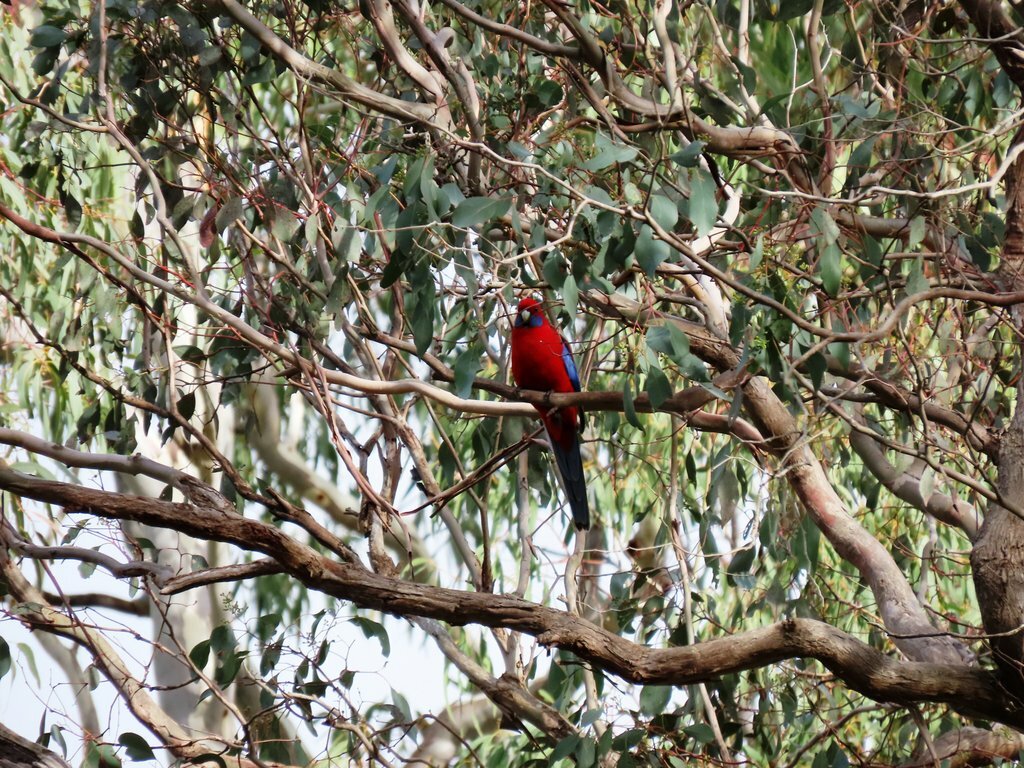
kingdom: Animalia
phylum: Chordata
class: Aves
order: Psittaciformes
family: Psittacidae
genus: Platycercus
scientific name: Platycercus elegans
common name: Crimson rosella
